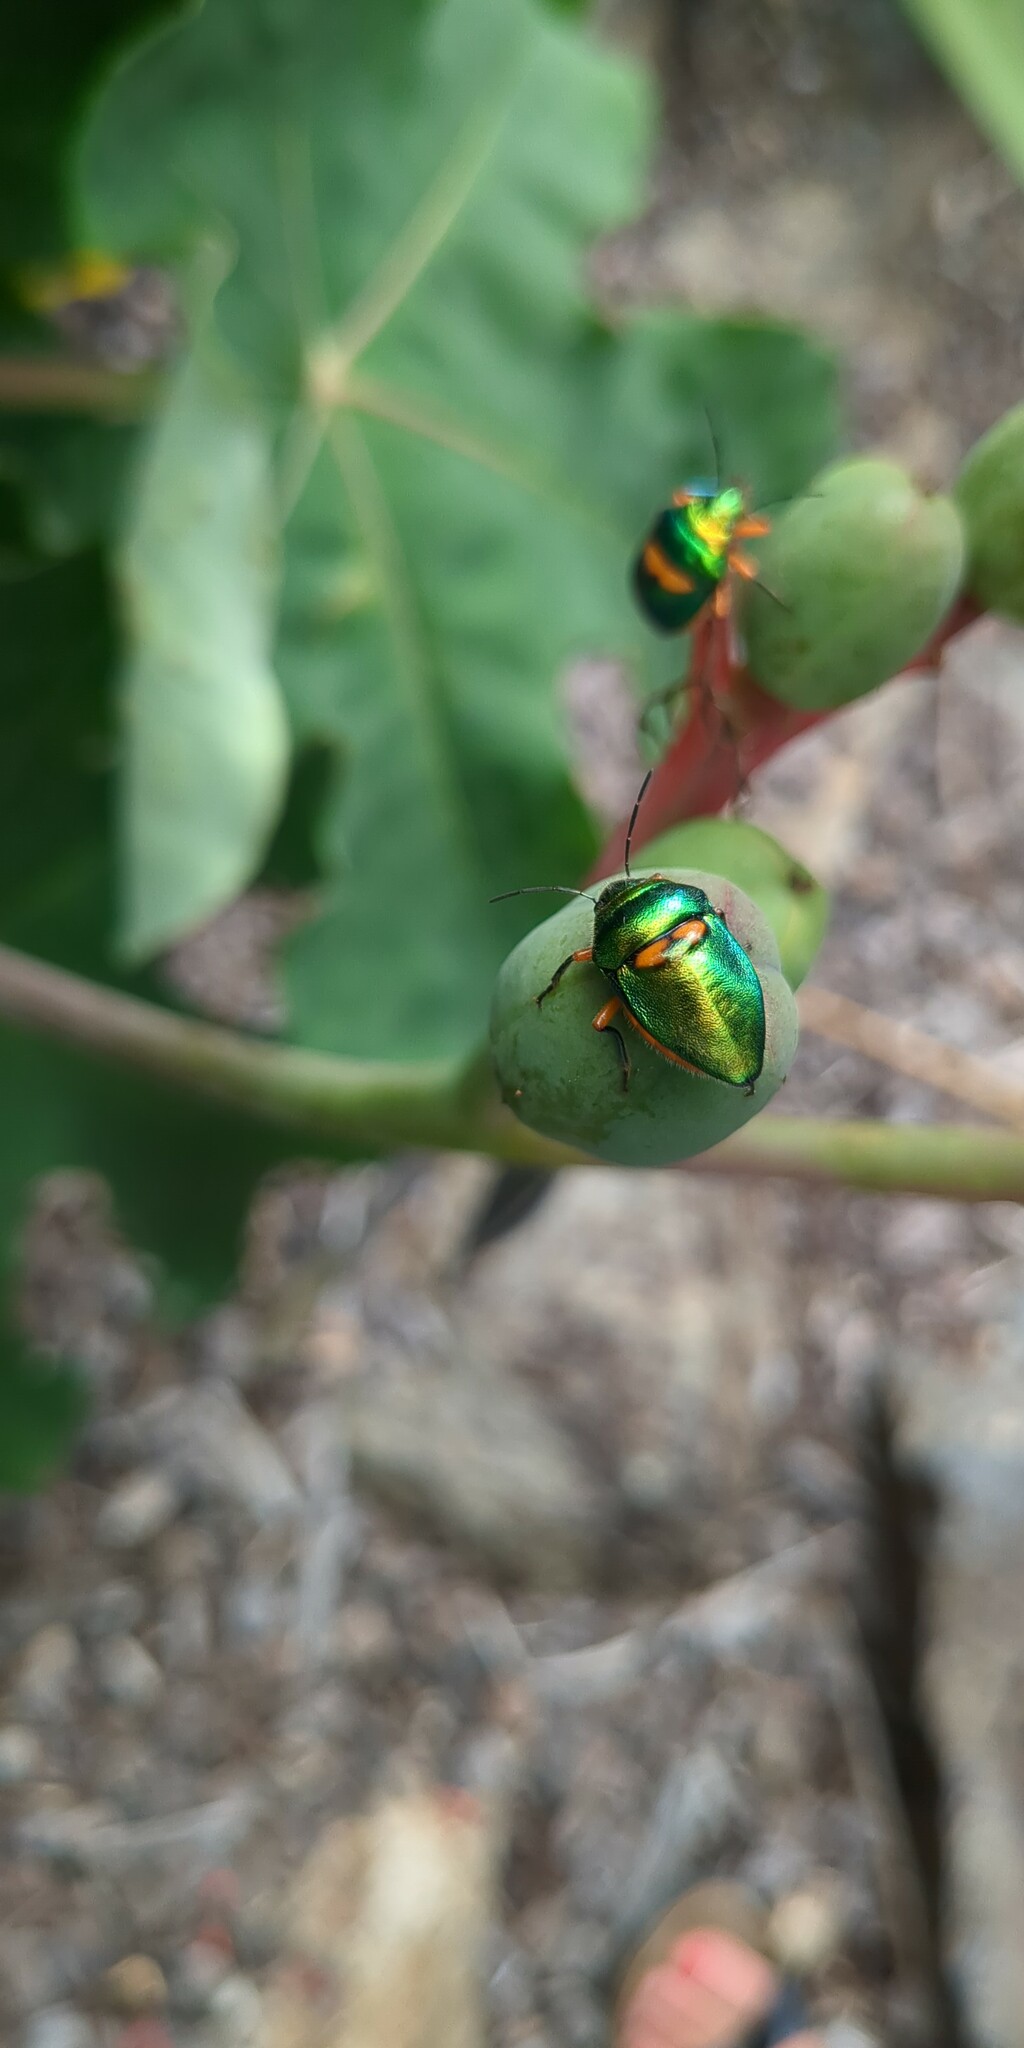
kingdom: Animalia
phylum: Arthropoda
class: Insecta
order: Hemiptera
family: Scutelleridae
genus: Lampromicra
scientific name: Lampromicra senator
